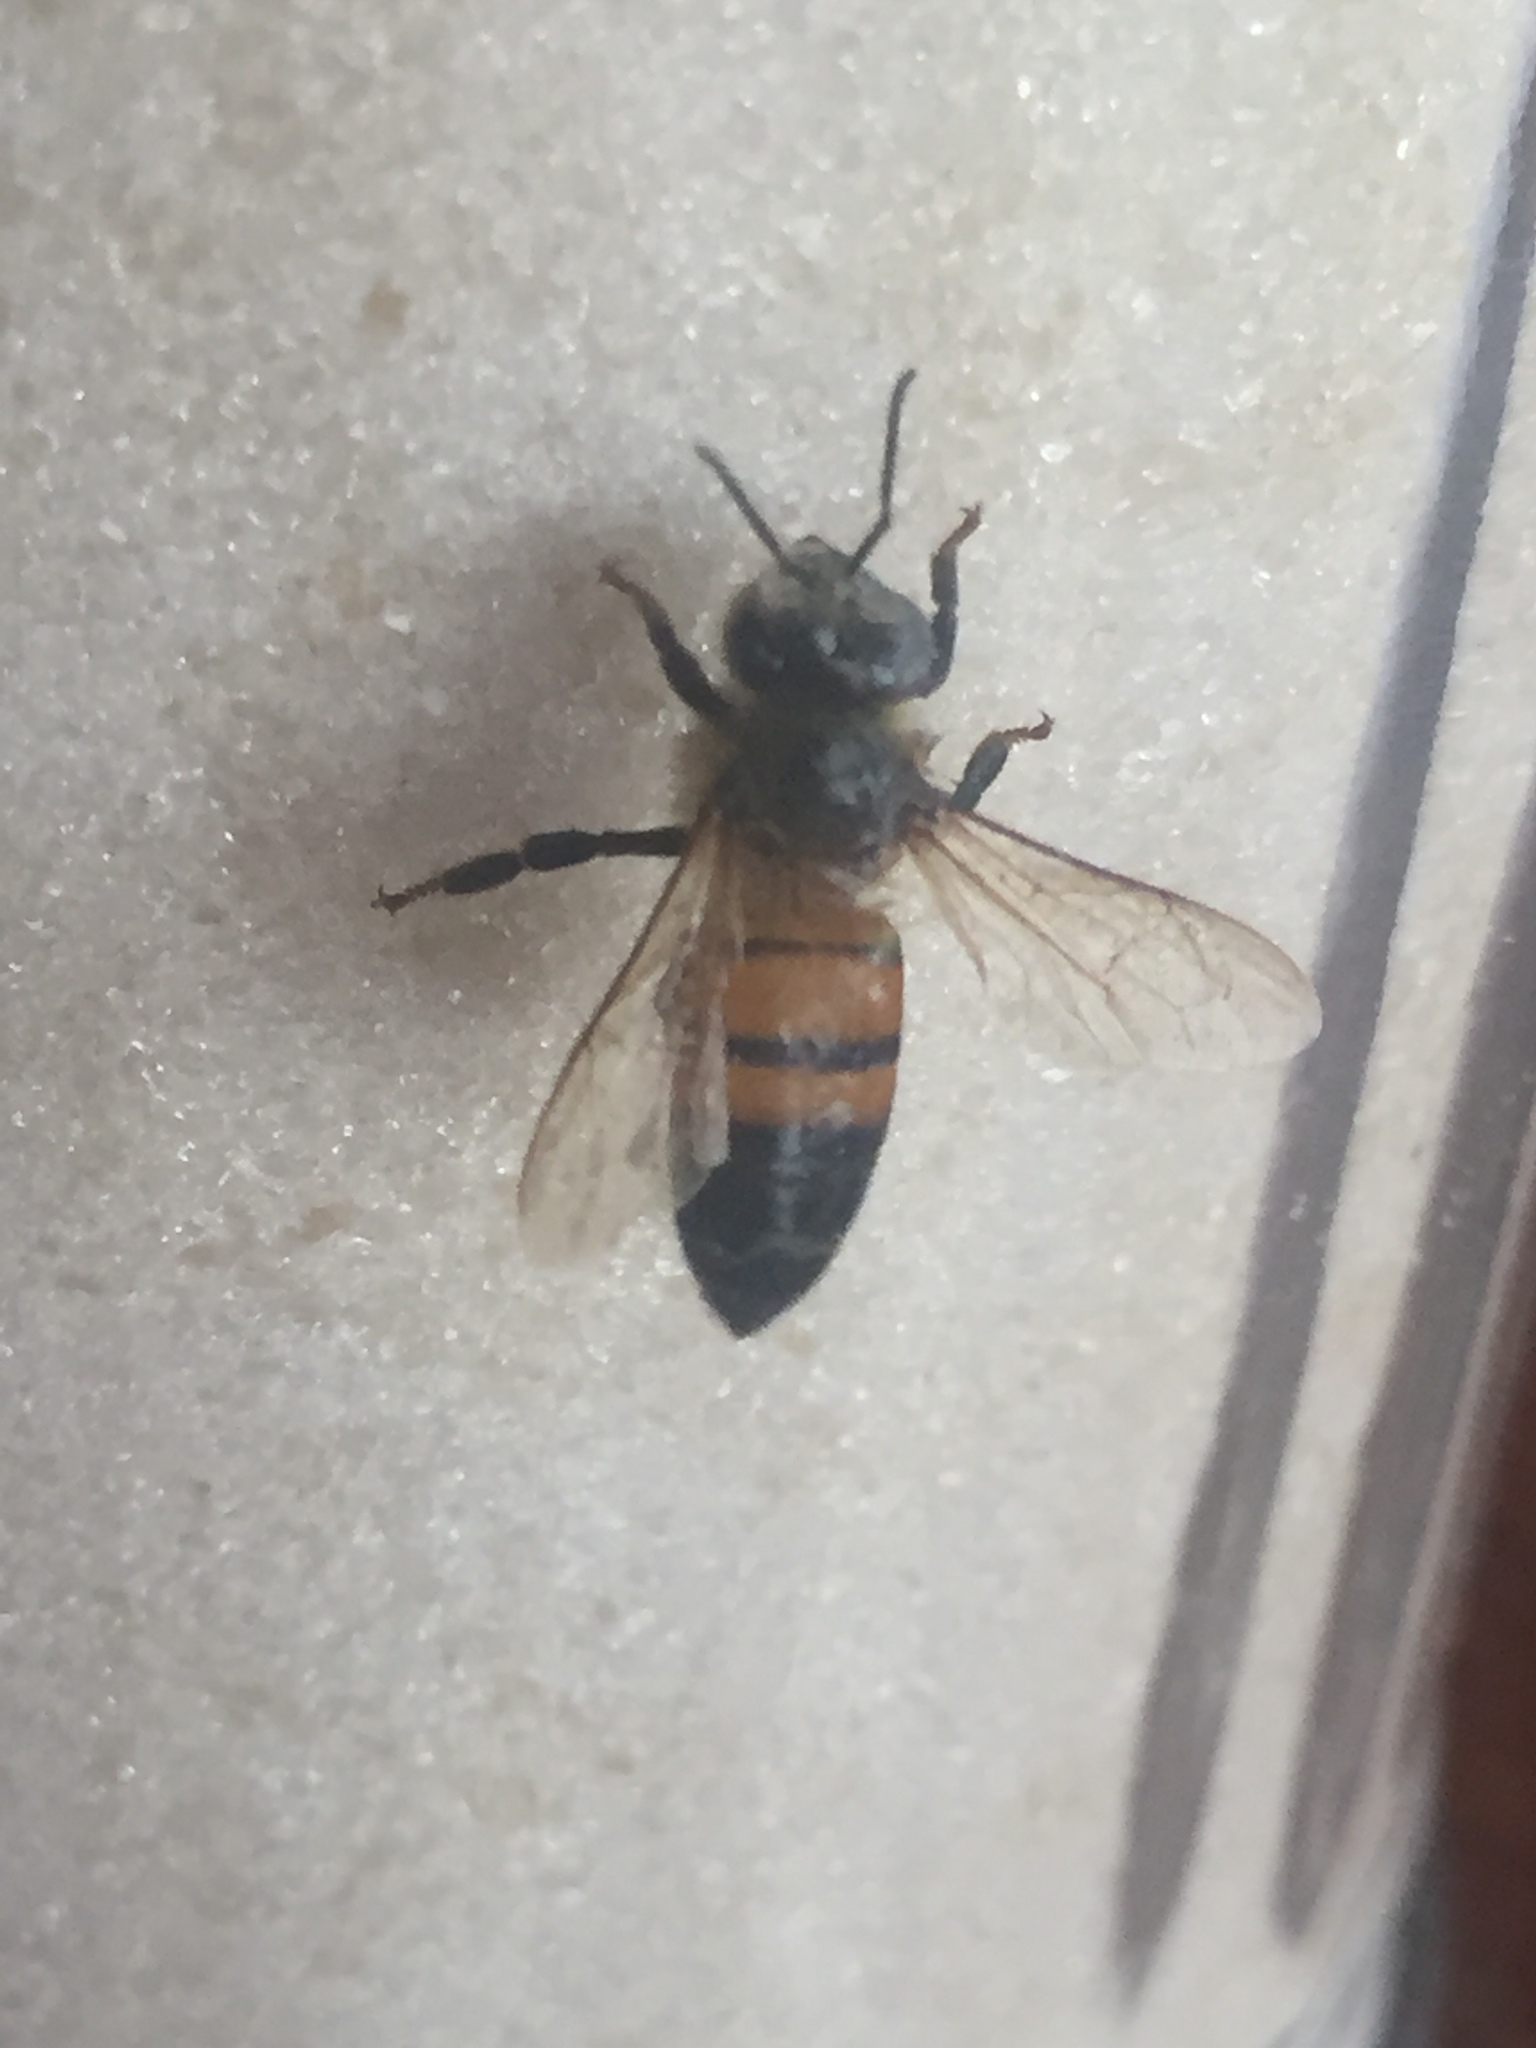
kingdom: Animalia
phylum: Arthropoda
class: Insecta
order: Hymenoptera
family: Apidae
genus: Apis
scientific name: Apis mellifera
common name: Honey bee
